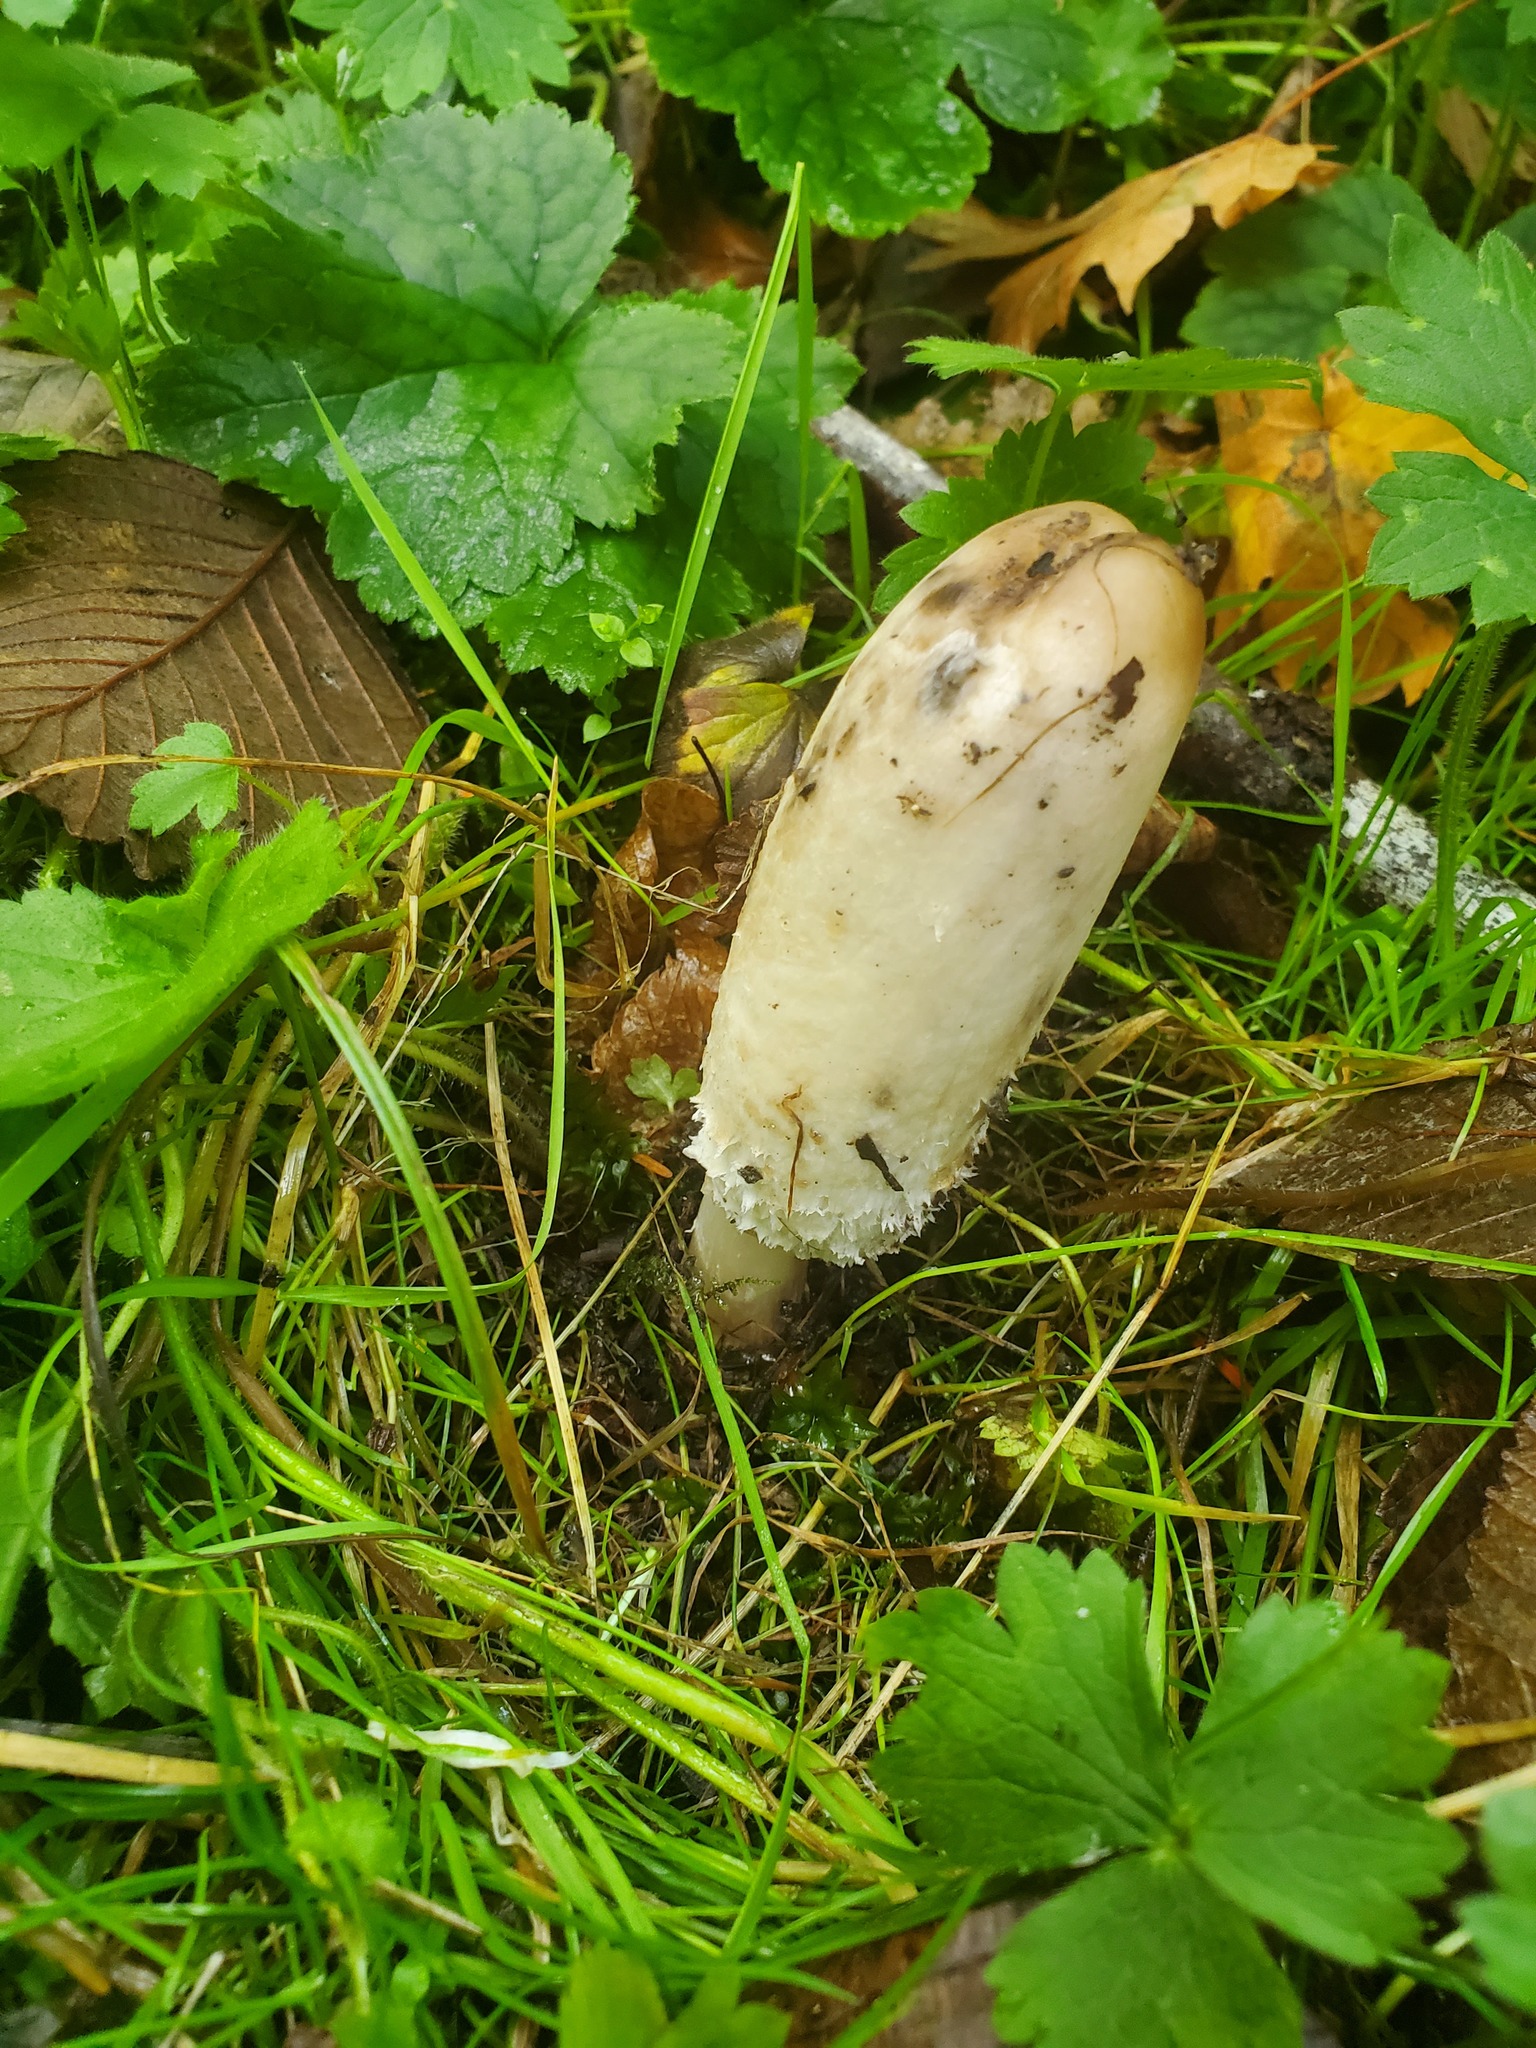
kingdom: Fungi
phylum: Basidiomycota
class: Agaricomycetes
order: Agaricales
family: Agaricaceae
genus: Coprinus
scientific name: Coprinus comatus
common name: Lawyer's wig
